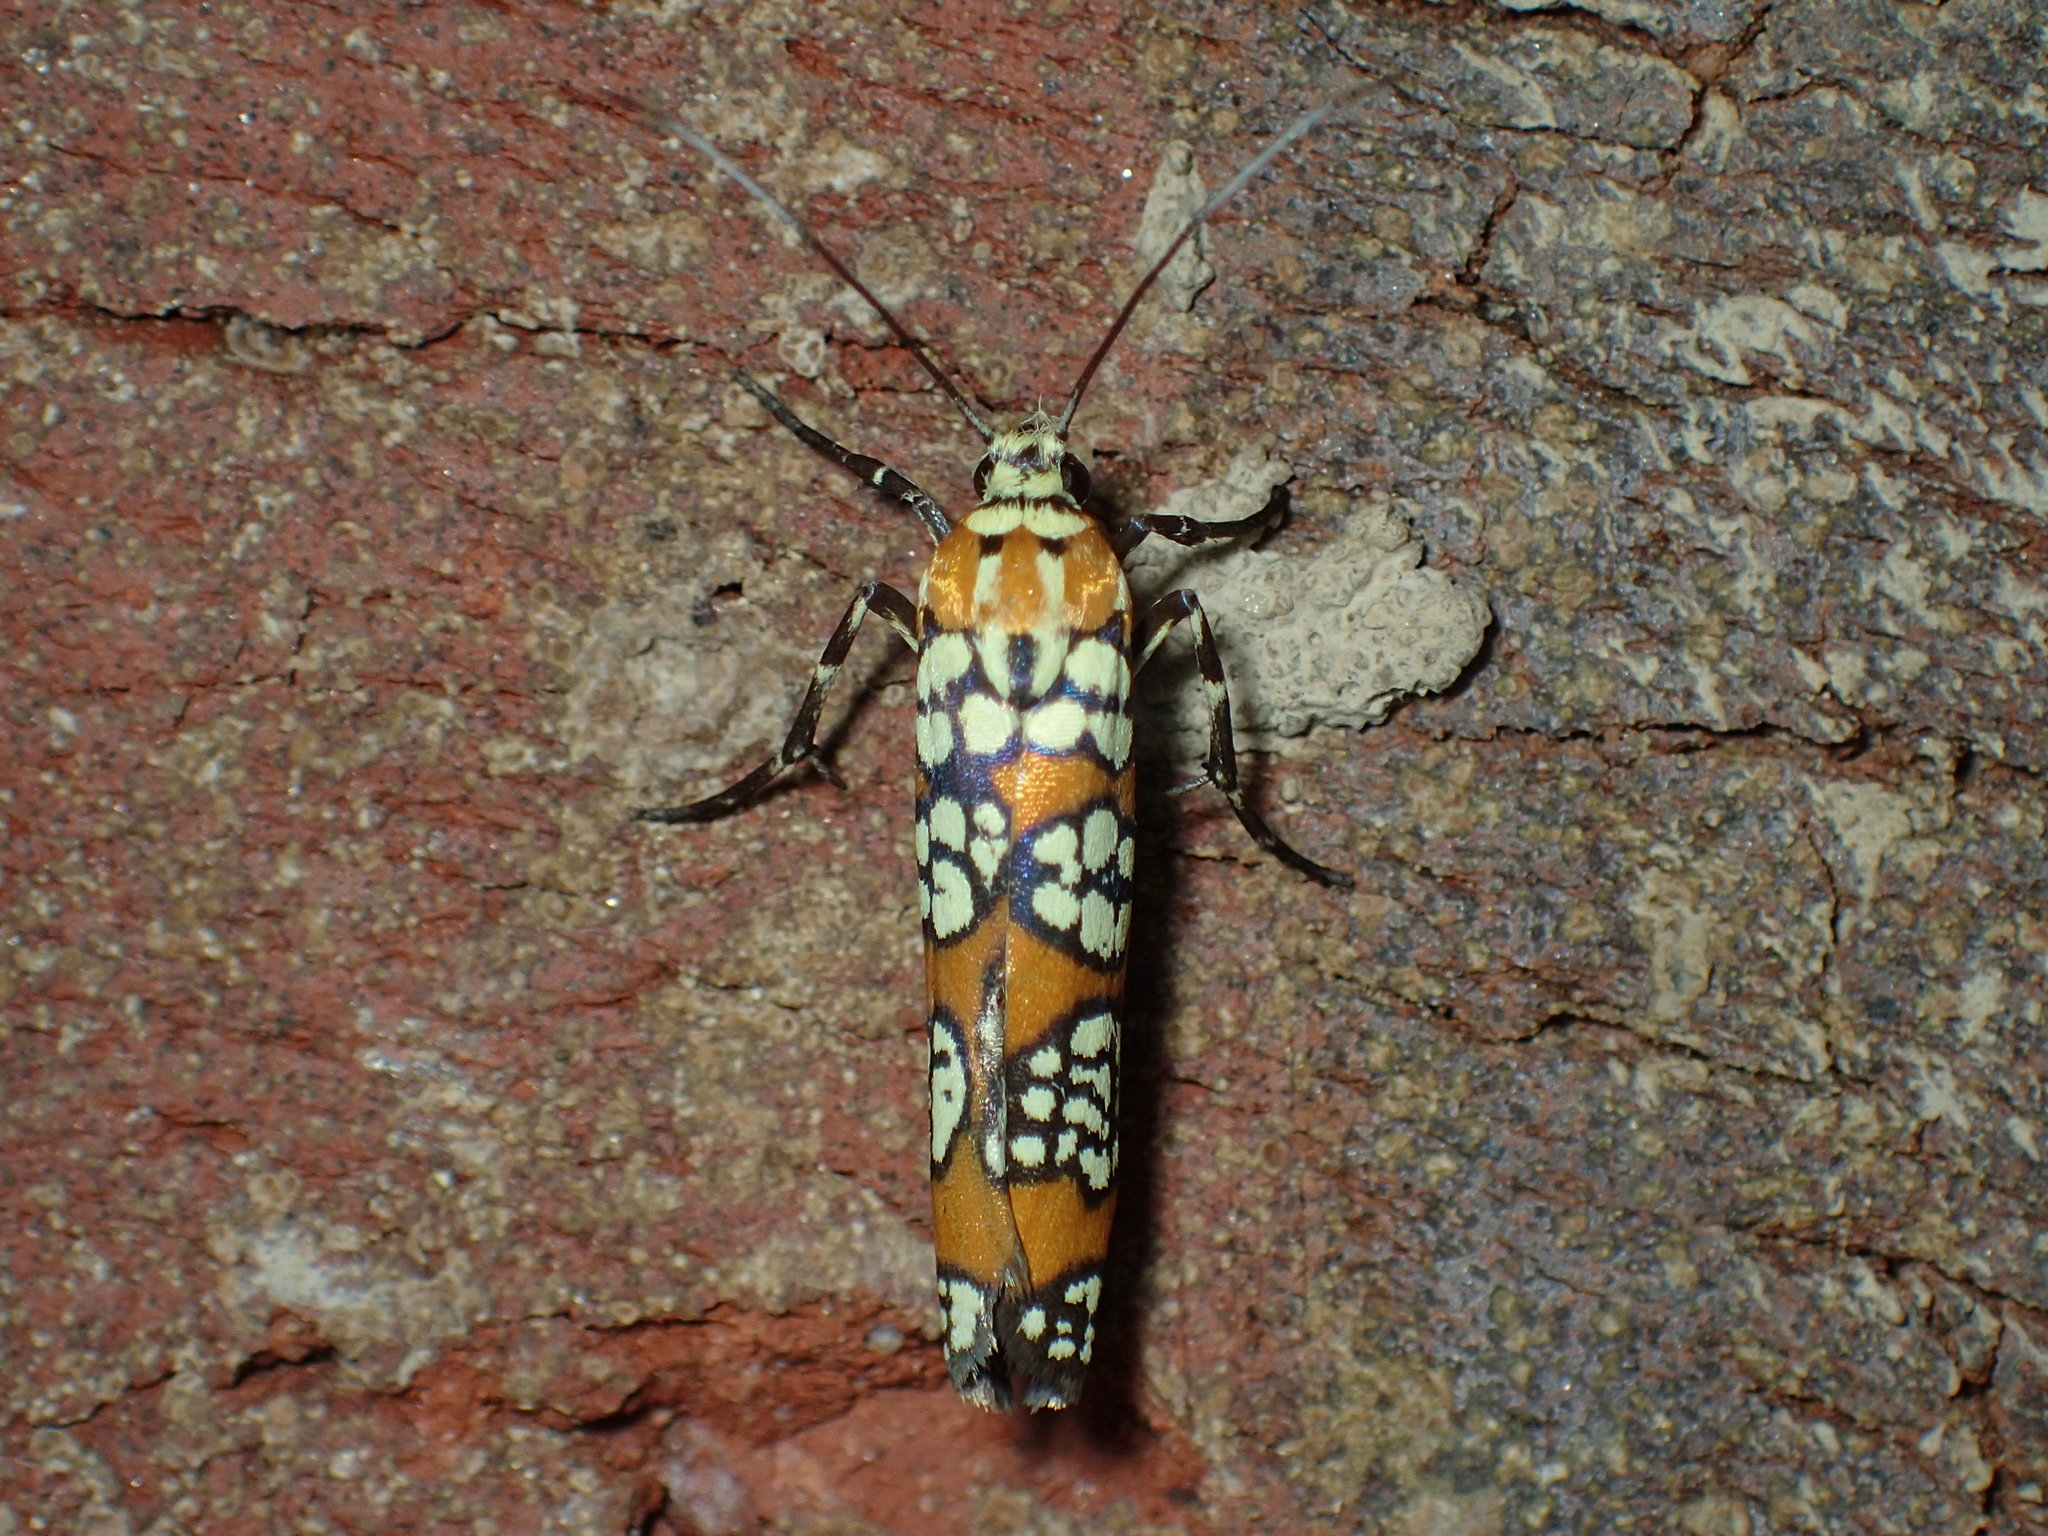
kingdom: Animalia
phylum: Arthropoda
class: Insecta
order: Lepidoptera
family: Attevidae
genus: Atteva
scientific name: Atteva punctella
